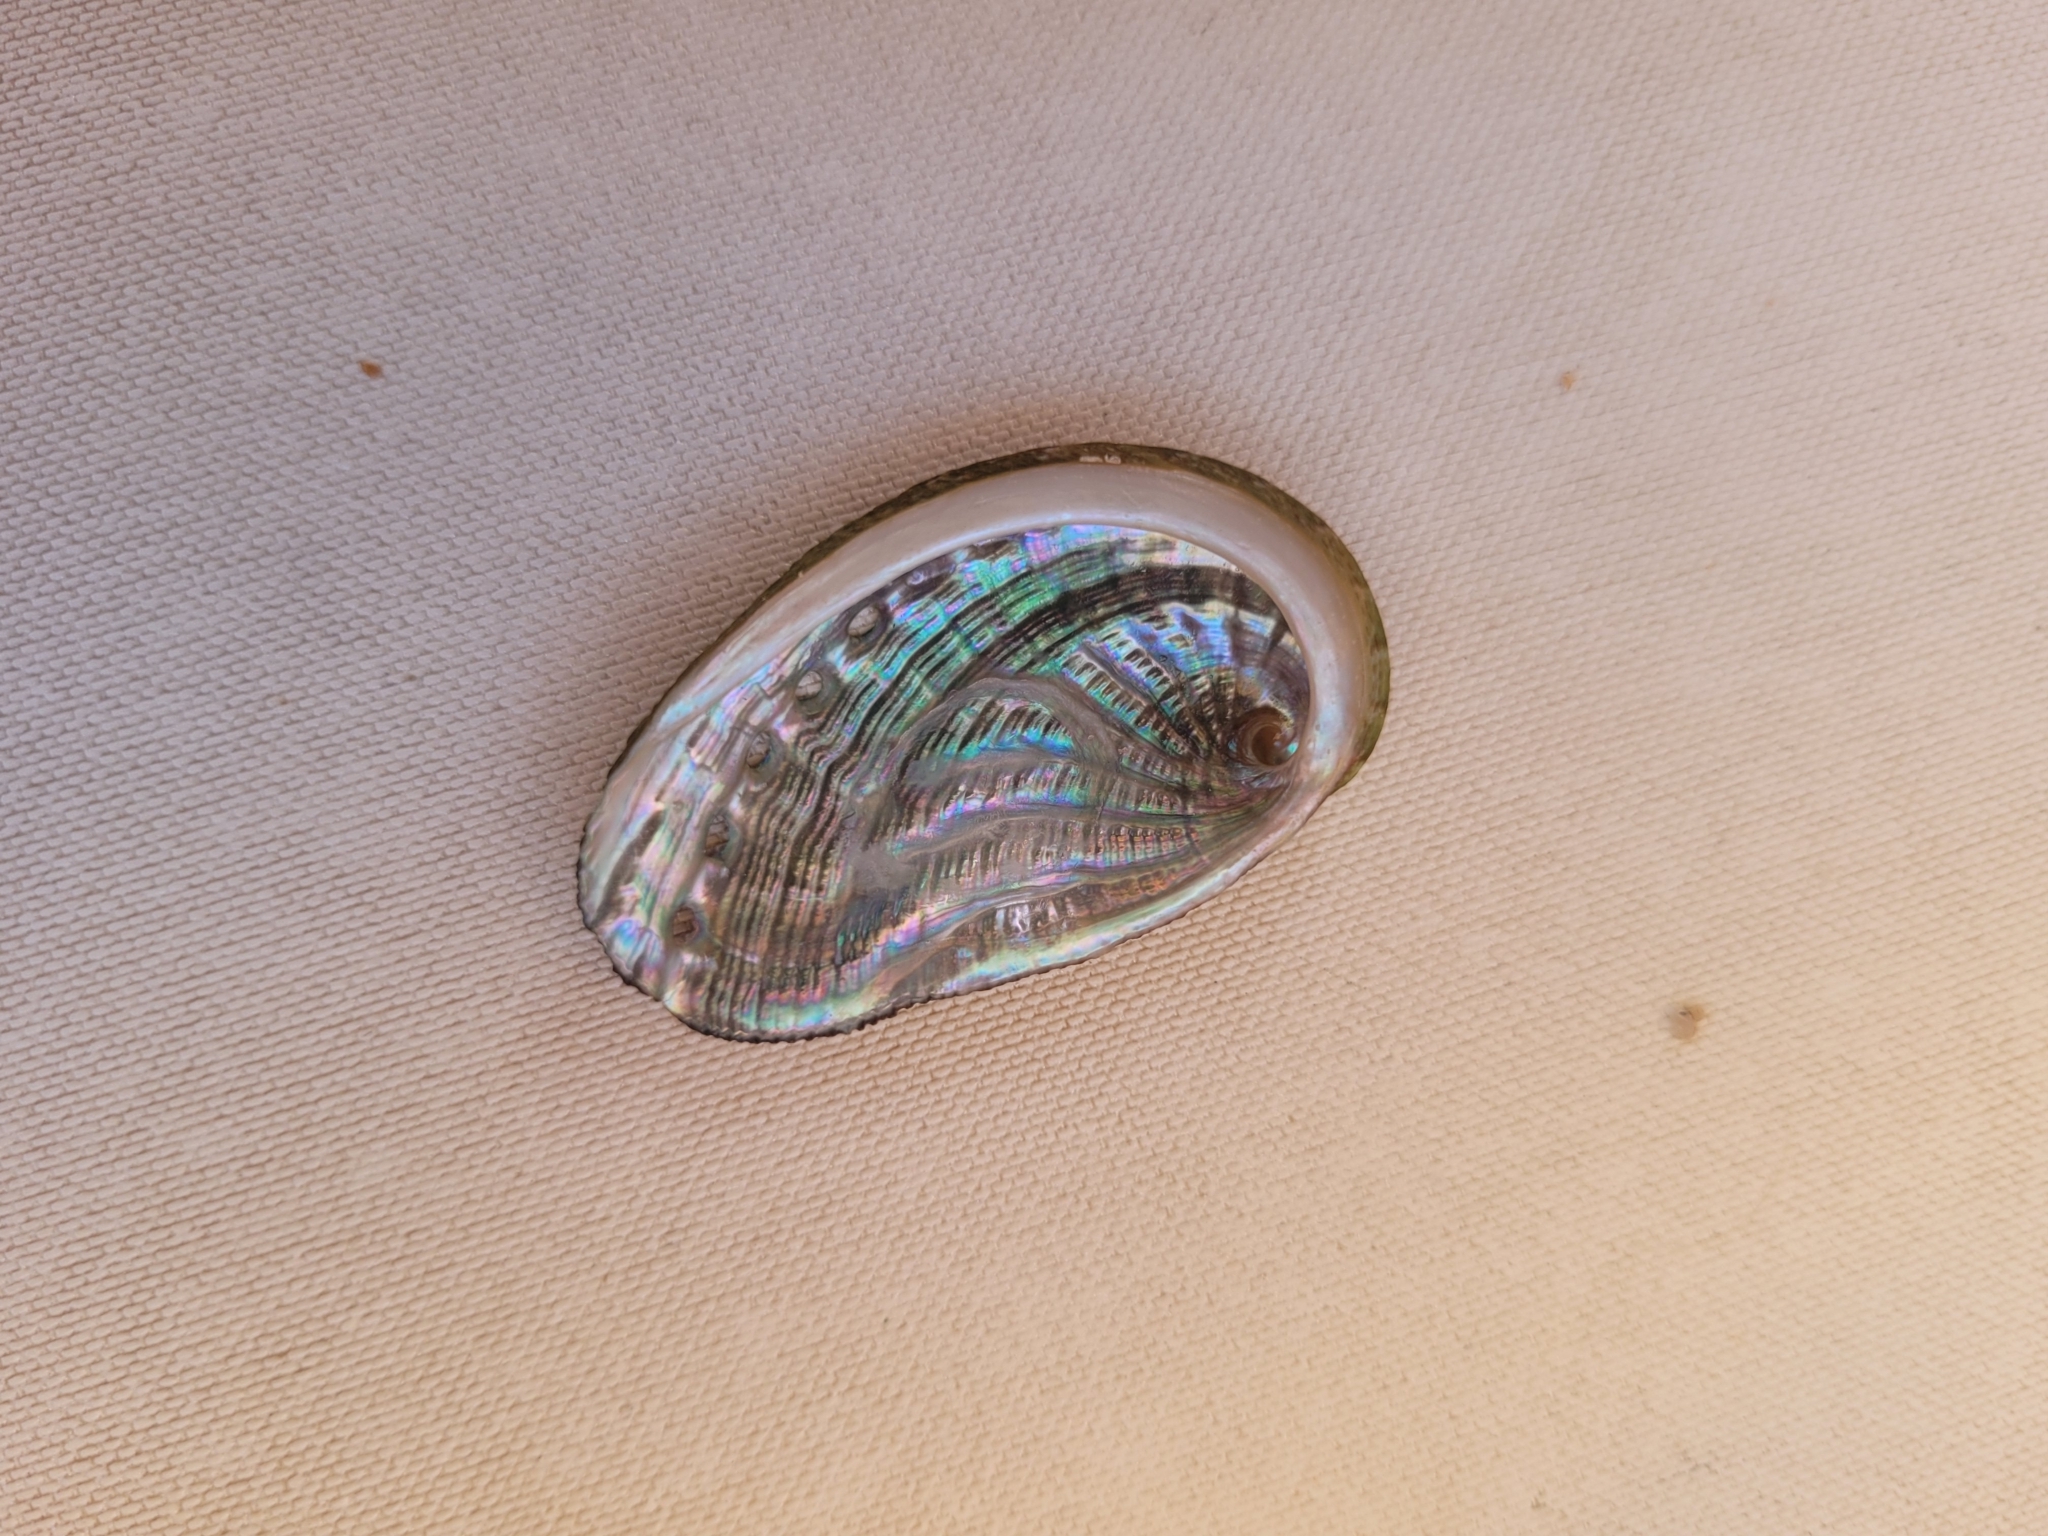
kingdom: Animalia
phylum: Mollusca
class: Gastropoda
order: Lepetellida
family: Haliotidae
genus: Haliotis
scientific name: Haliotis tuberculata
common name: Green ormer
